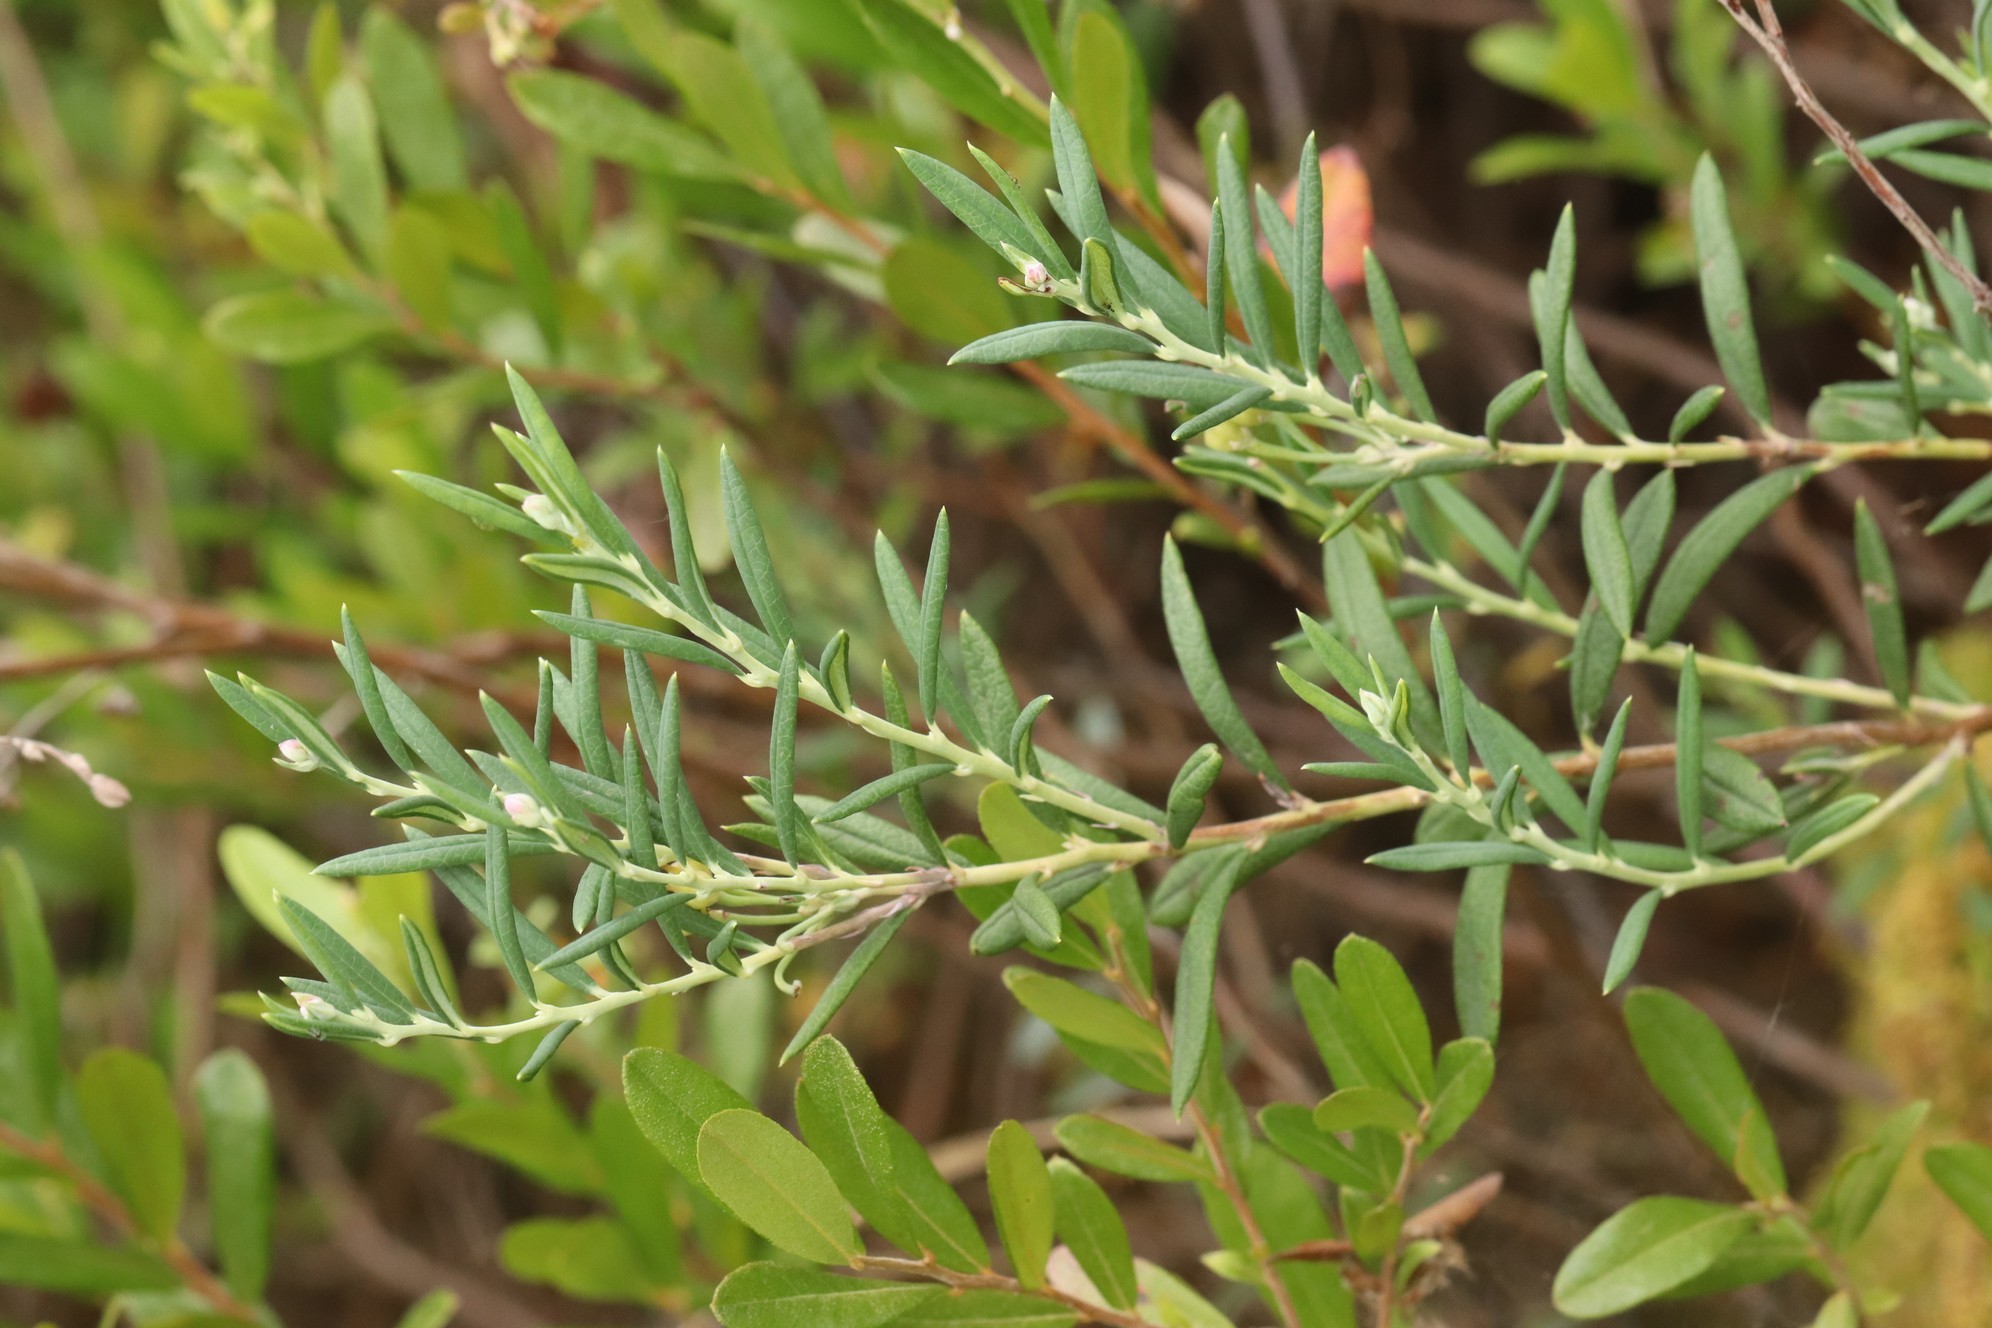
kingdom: Plantae
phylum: Tracheophyta
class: Magnoliopsida
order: Ericales
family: Ericaceae
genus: Andromeda
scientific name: Andromeda polifolia
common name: Bog-rosemary
